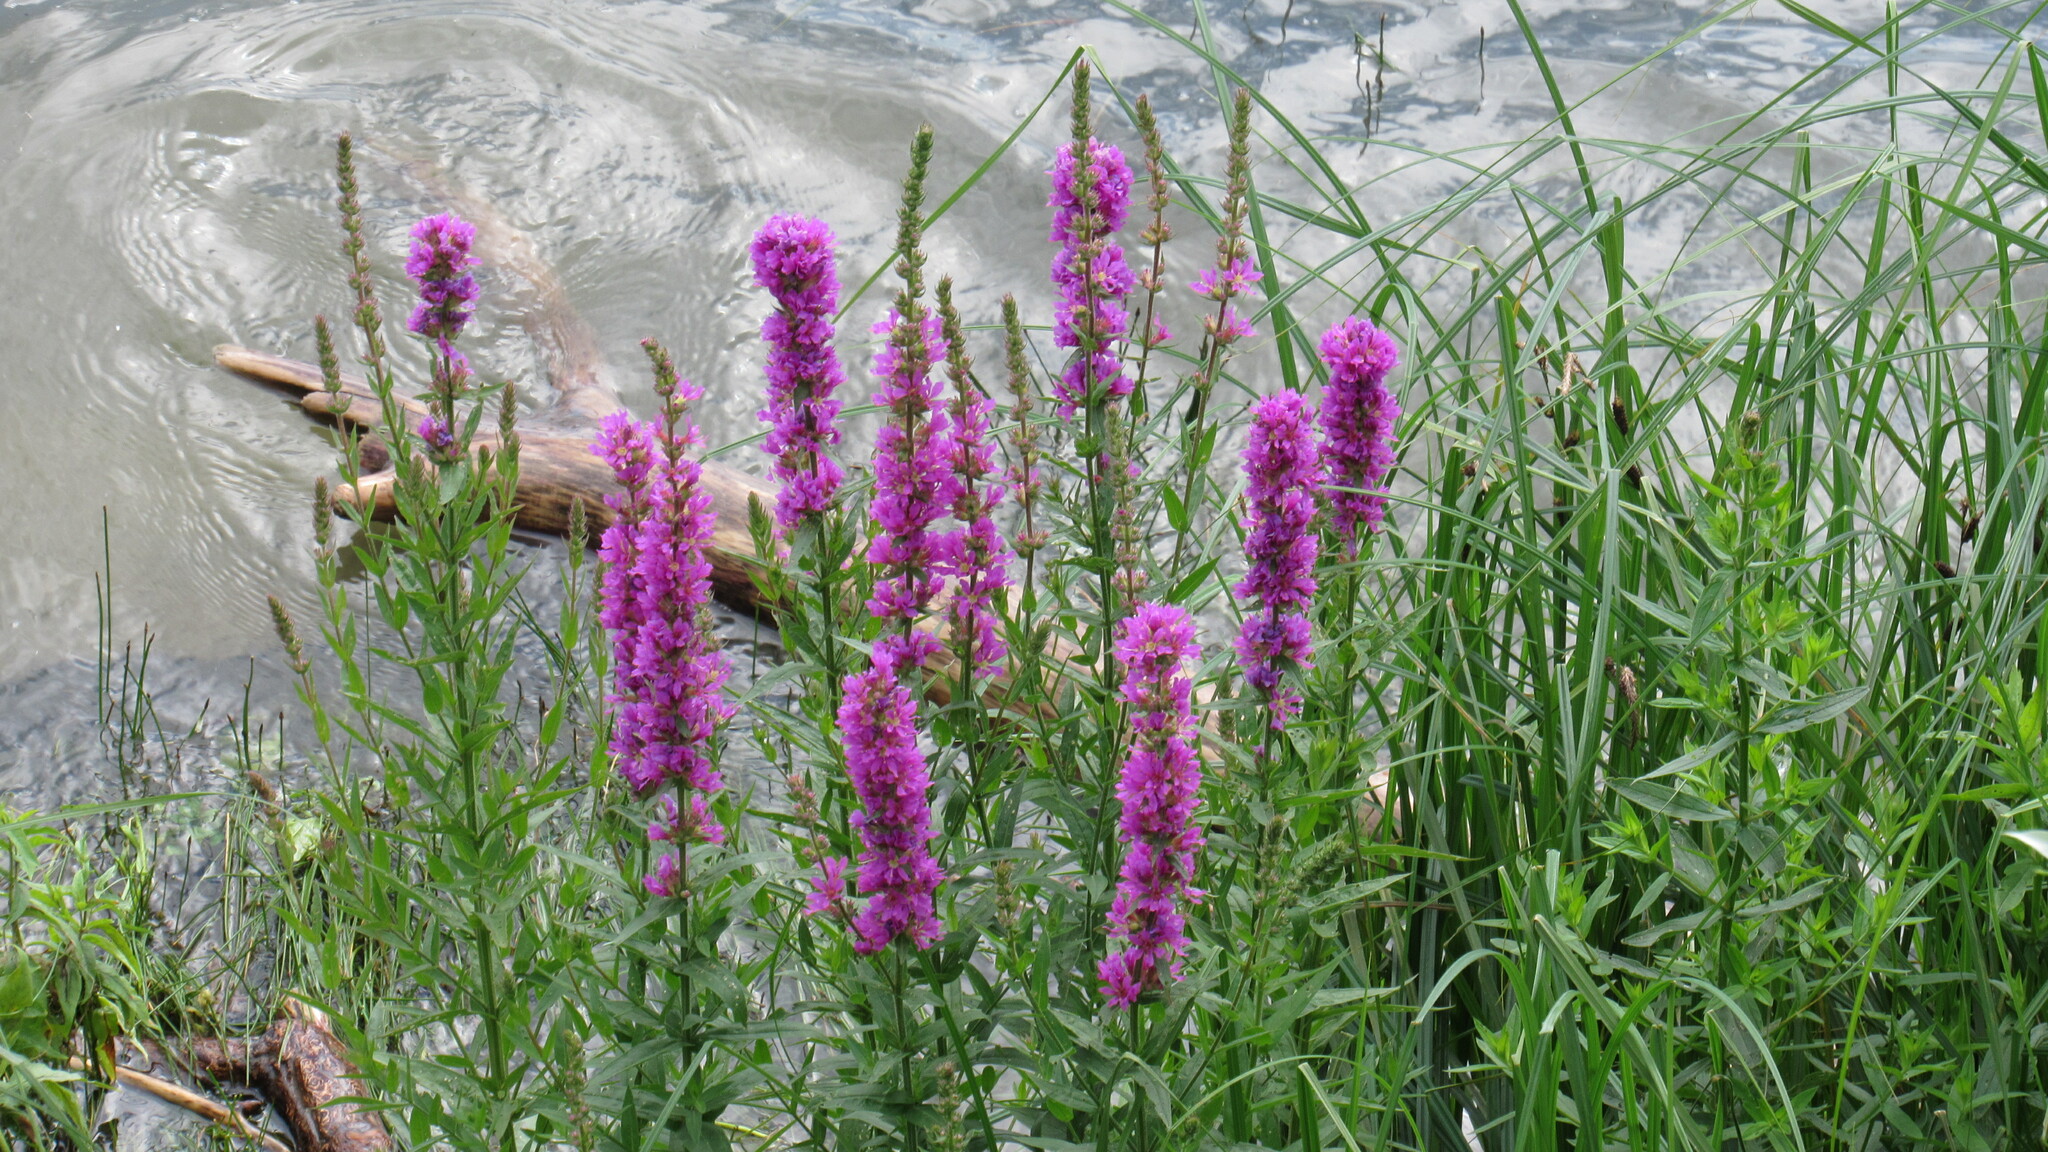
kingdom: Plantae
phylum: Tracheophyta
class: Magnoliopsida
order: Myrtales
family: Lythraceae
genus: Lythrum
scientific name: Lythrum salicaria
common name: Purple loosestrife
